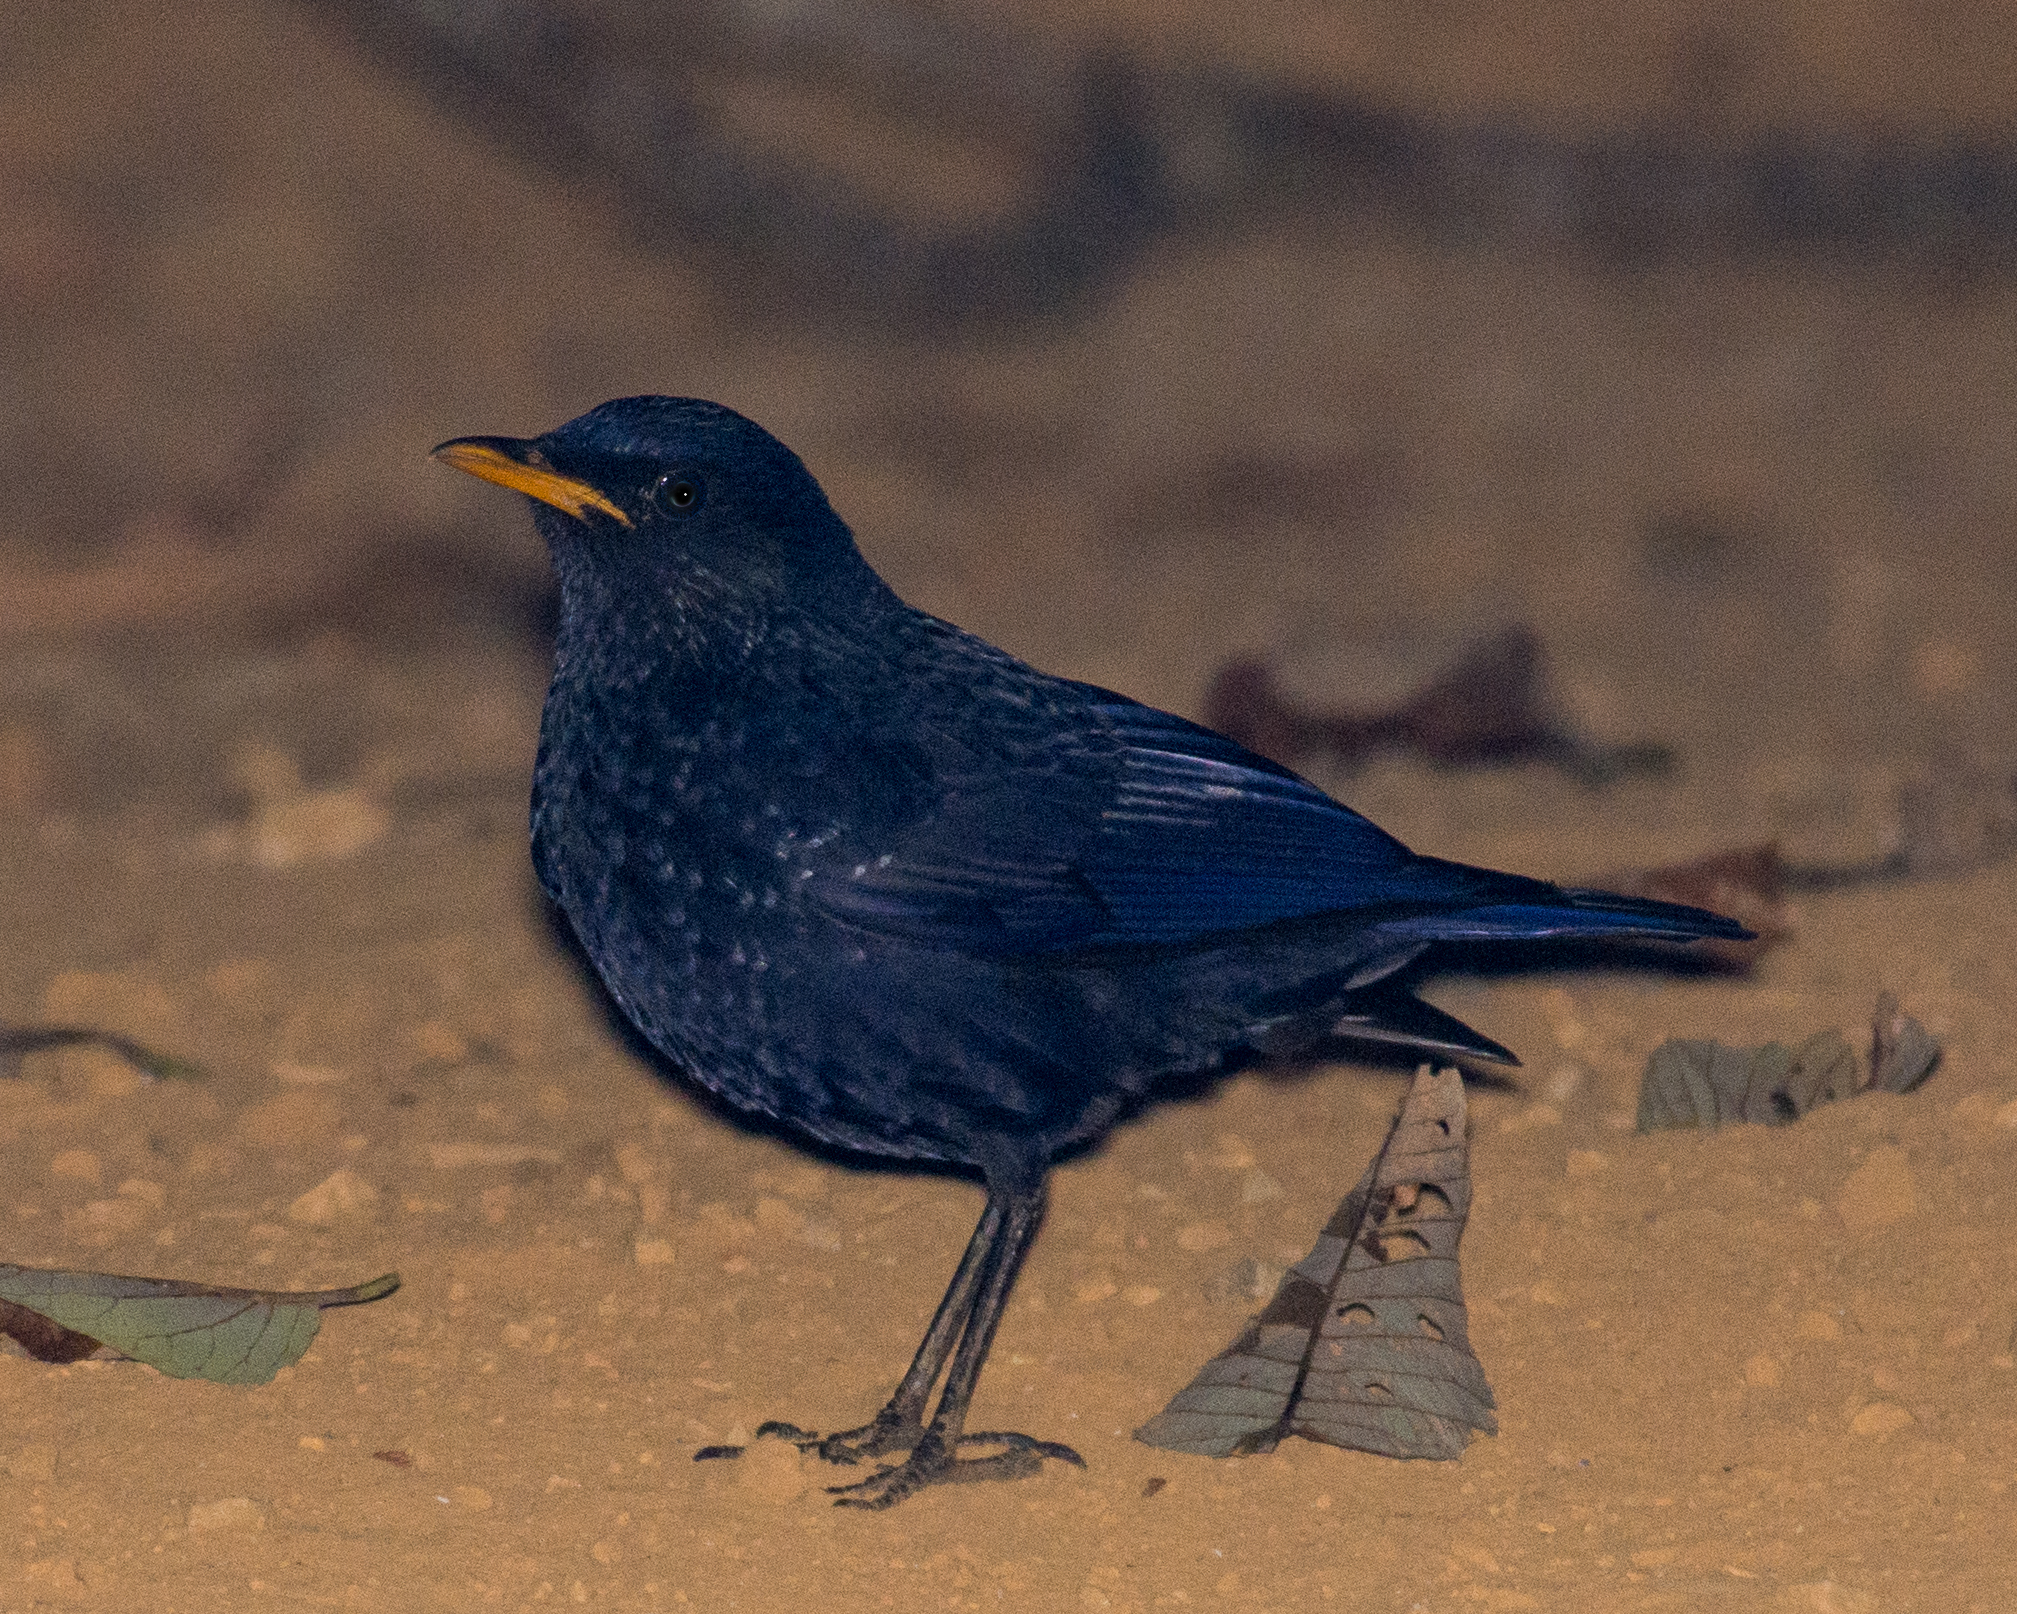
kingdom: Animalia
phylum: Chordata
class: Aves
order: Passeriformes
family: Muscicapidae
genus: Myophonus
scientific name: Myophonus caeruleus
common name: Blue whistling-thrush
